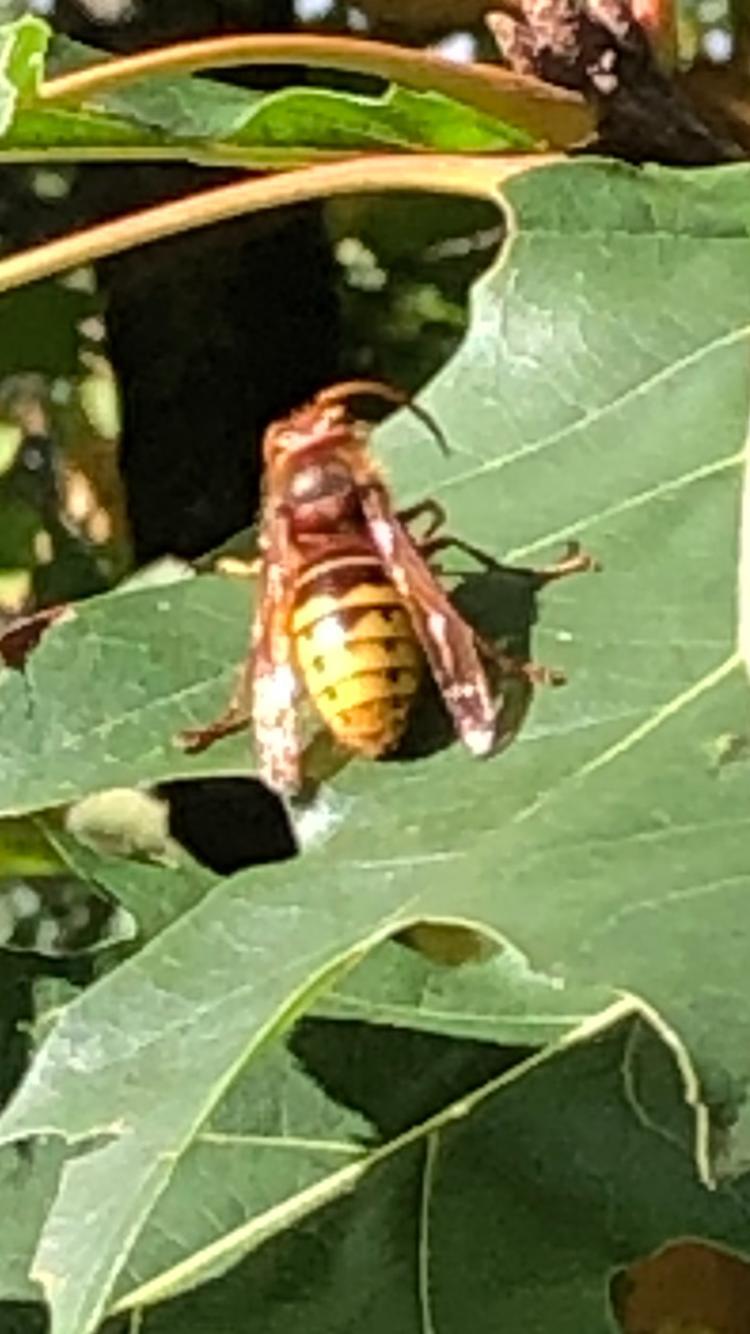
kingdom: Animalia
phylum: Arthropoda
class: Insecta
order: Hymenoptera
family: Vespidae
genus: Vespa
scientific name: Vespa crabro
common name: Hornet
